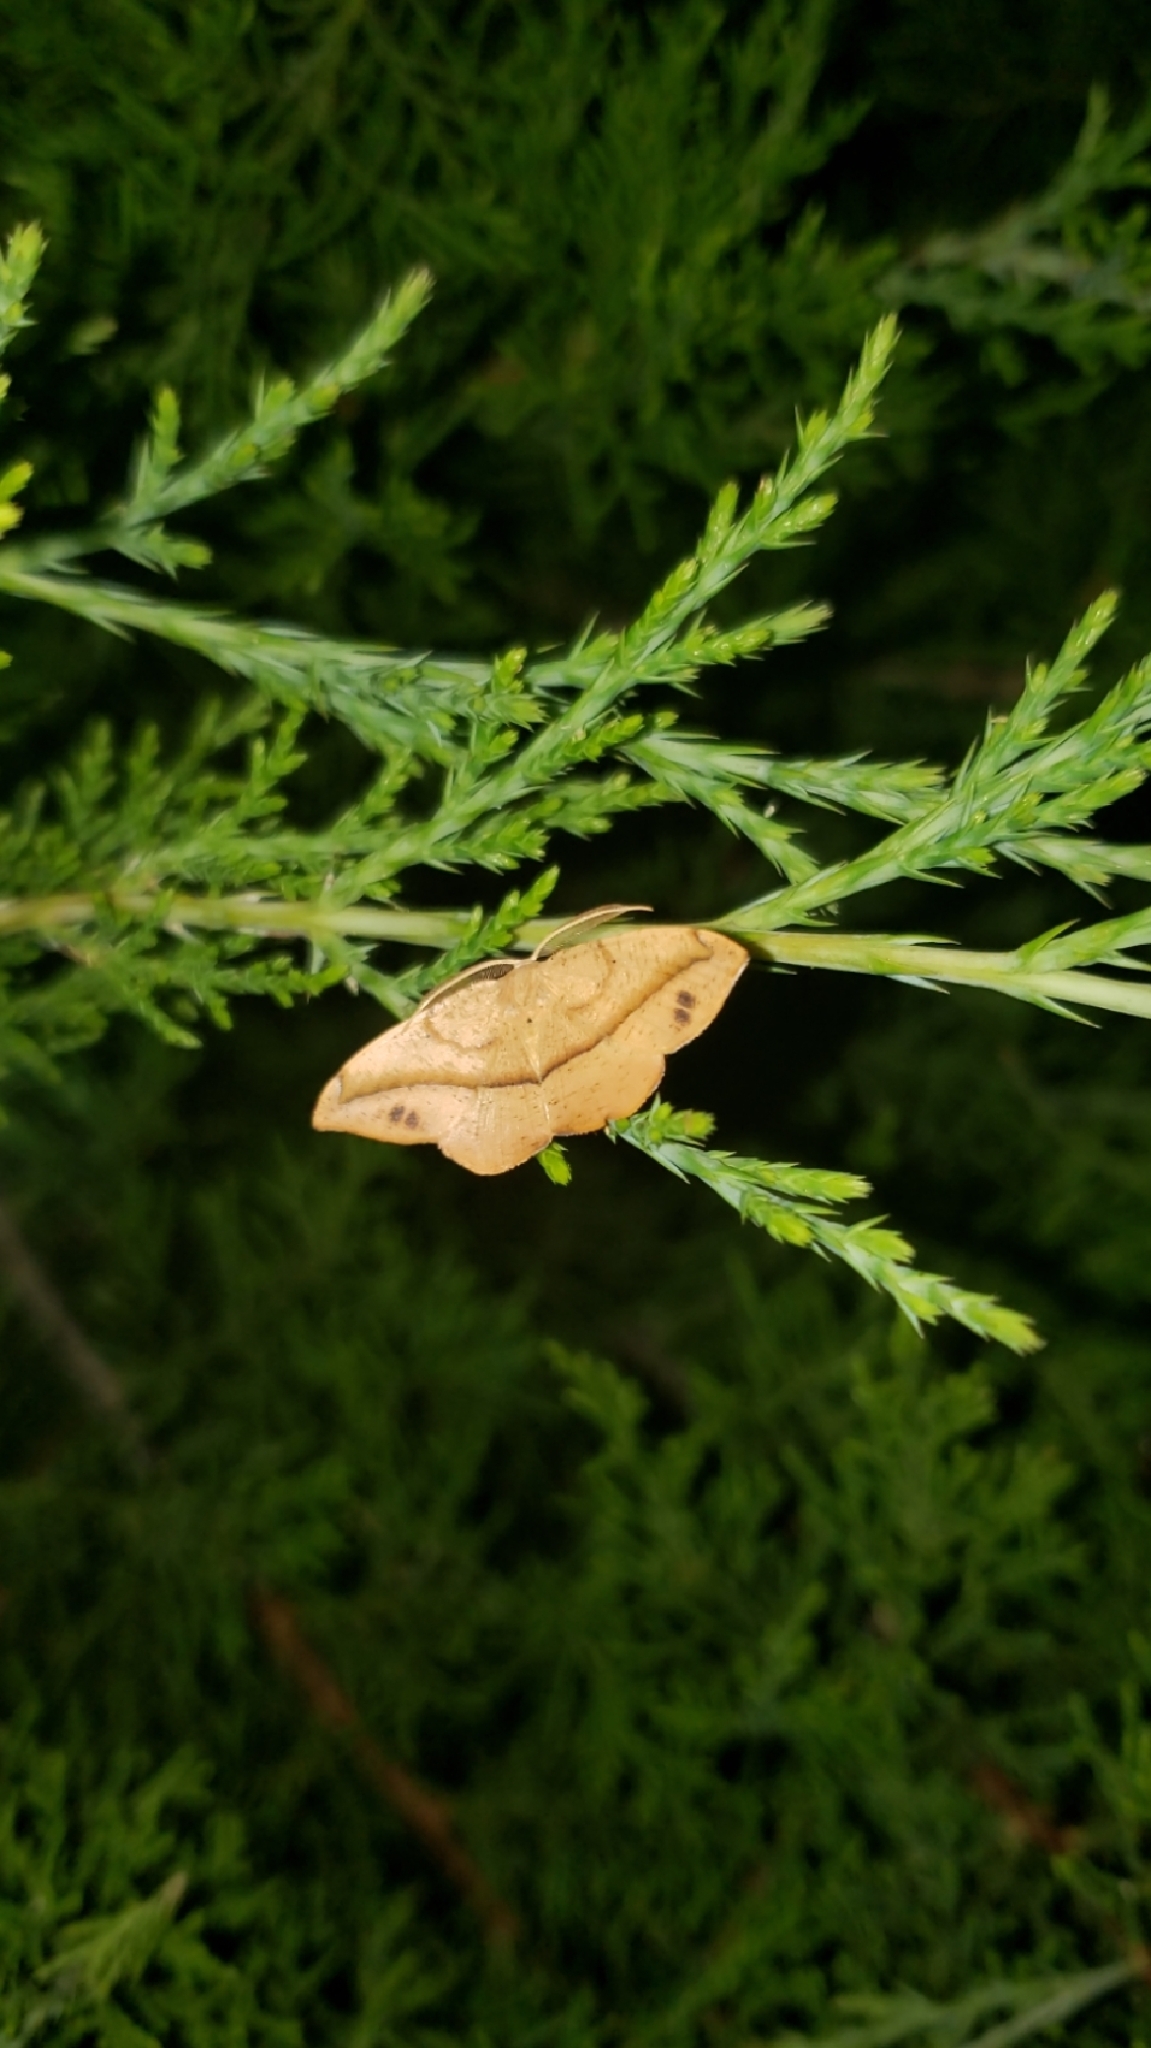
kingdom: Animalia
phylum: Arthropoda
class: Insecta
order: Lepidoptera
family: Geometridae
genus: Patalene
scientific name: Patalene olyzonaria
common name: Juniper geometer moth
